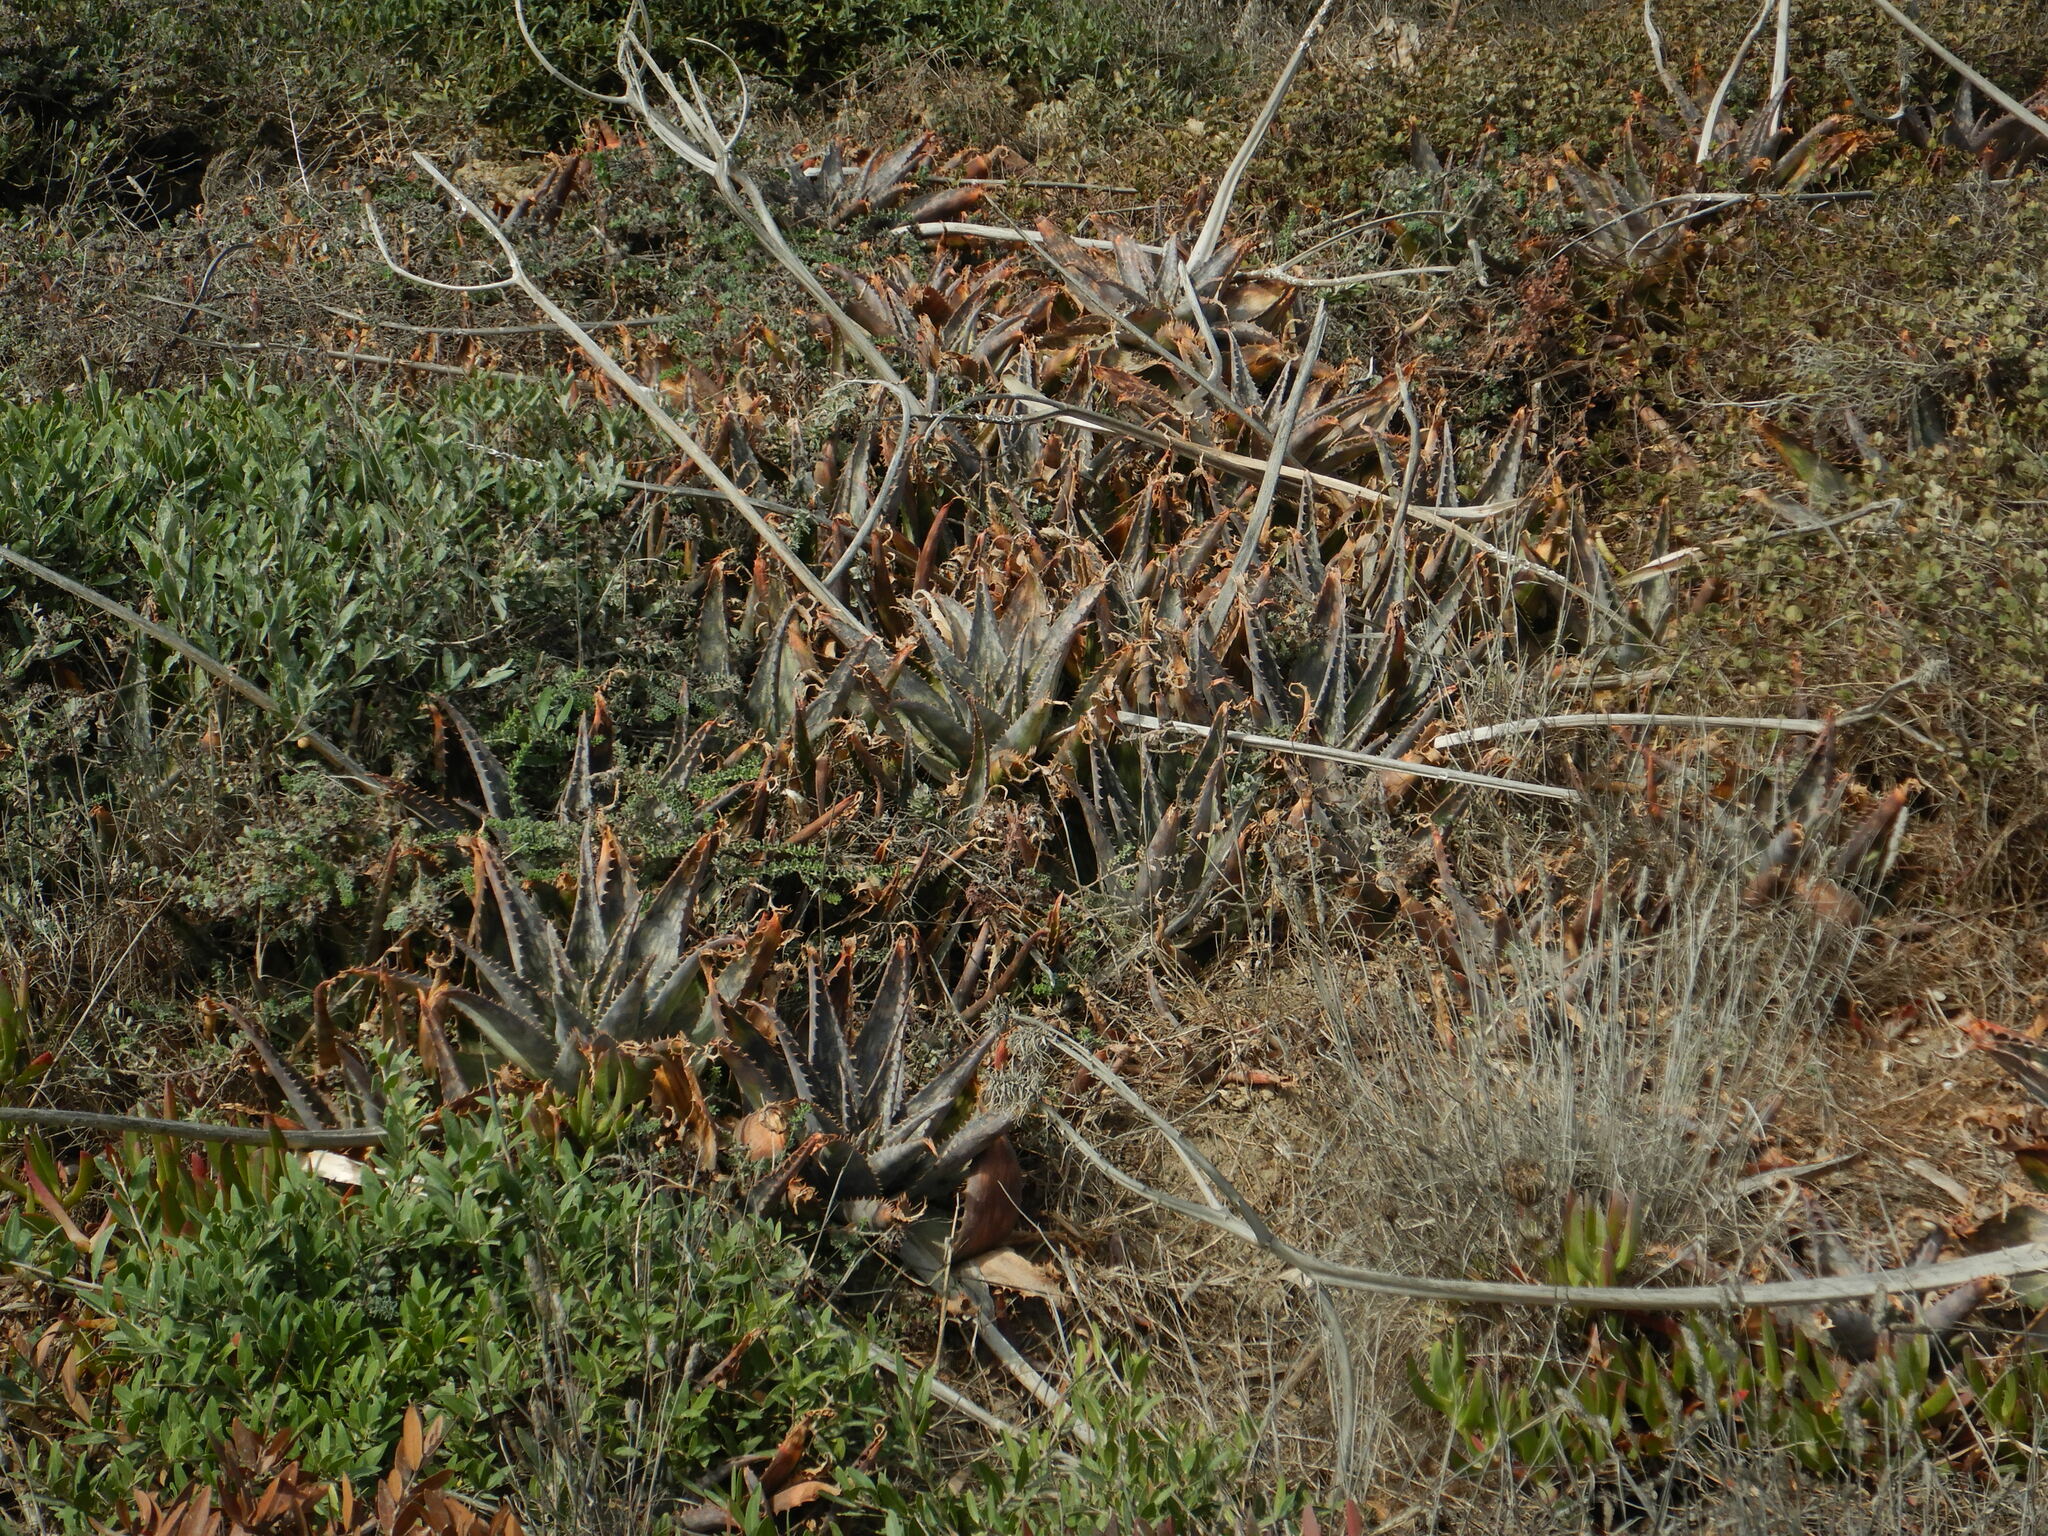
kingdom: Plantae
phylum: Tracheophyta
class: Liliopsida
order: Asparagales
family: Asphodelaceae
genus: Aloe
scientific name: Aloe maculata
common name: Broadleaf aloe
